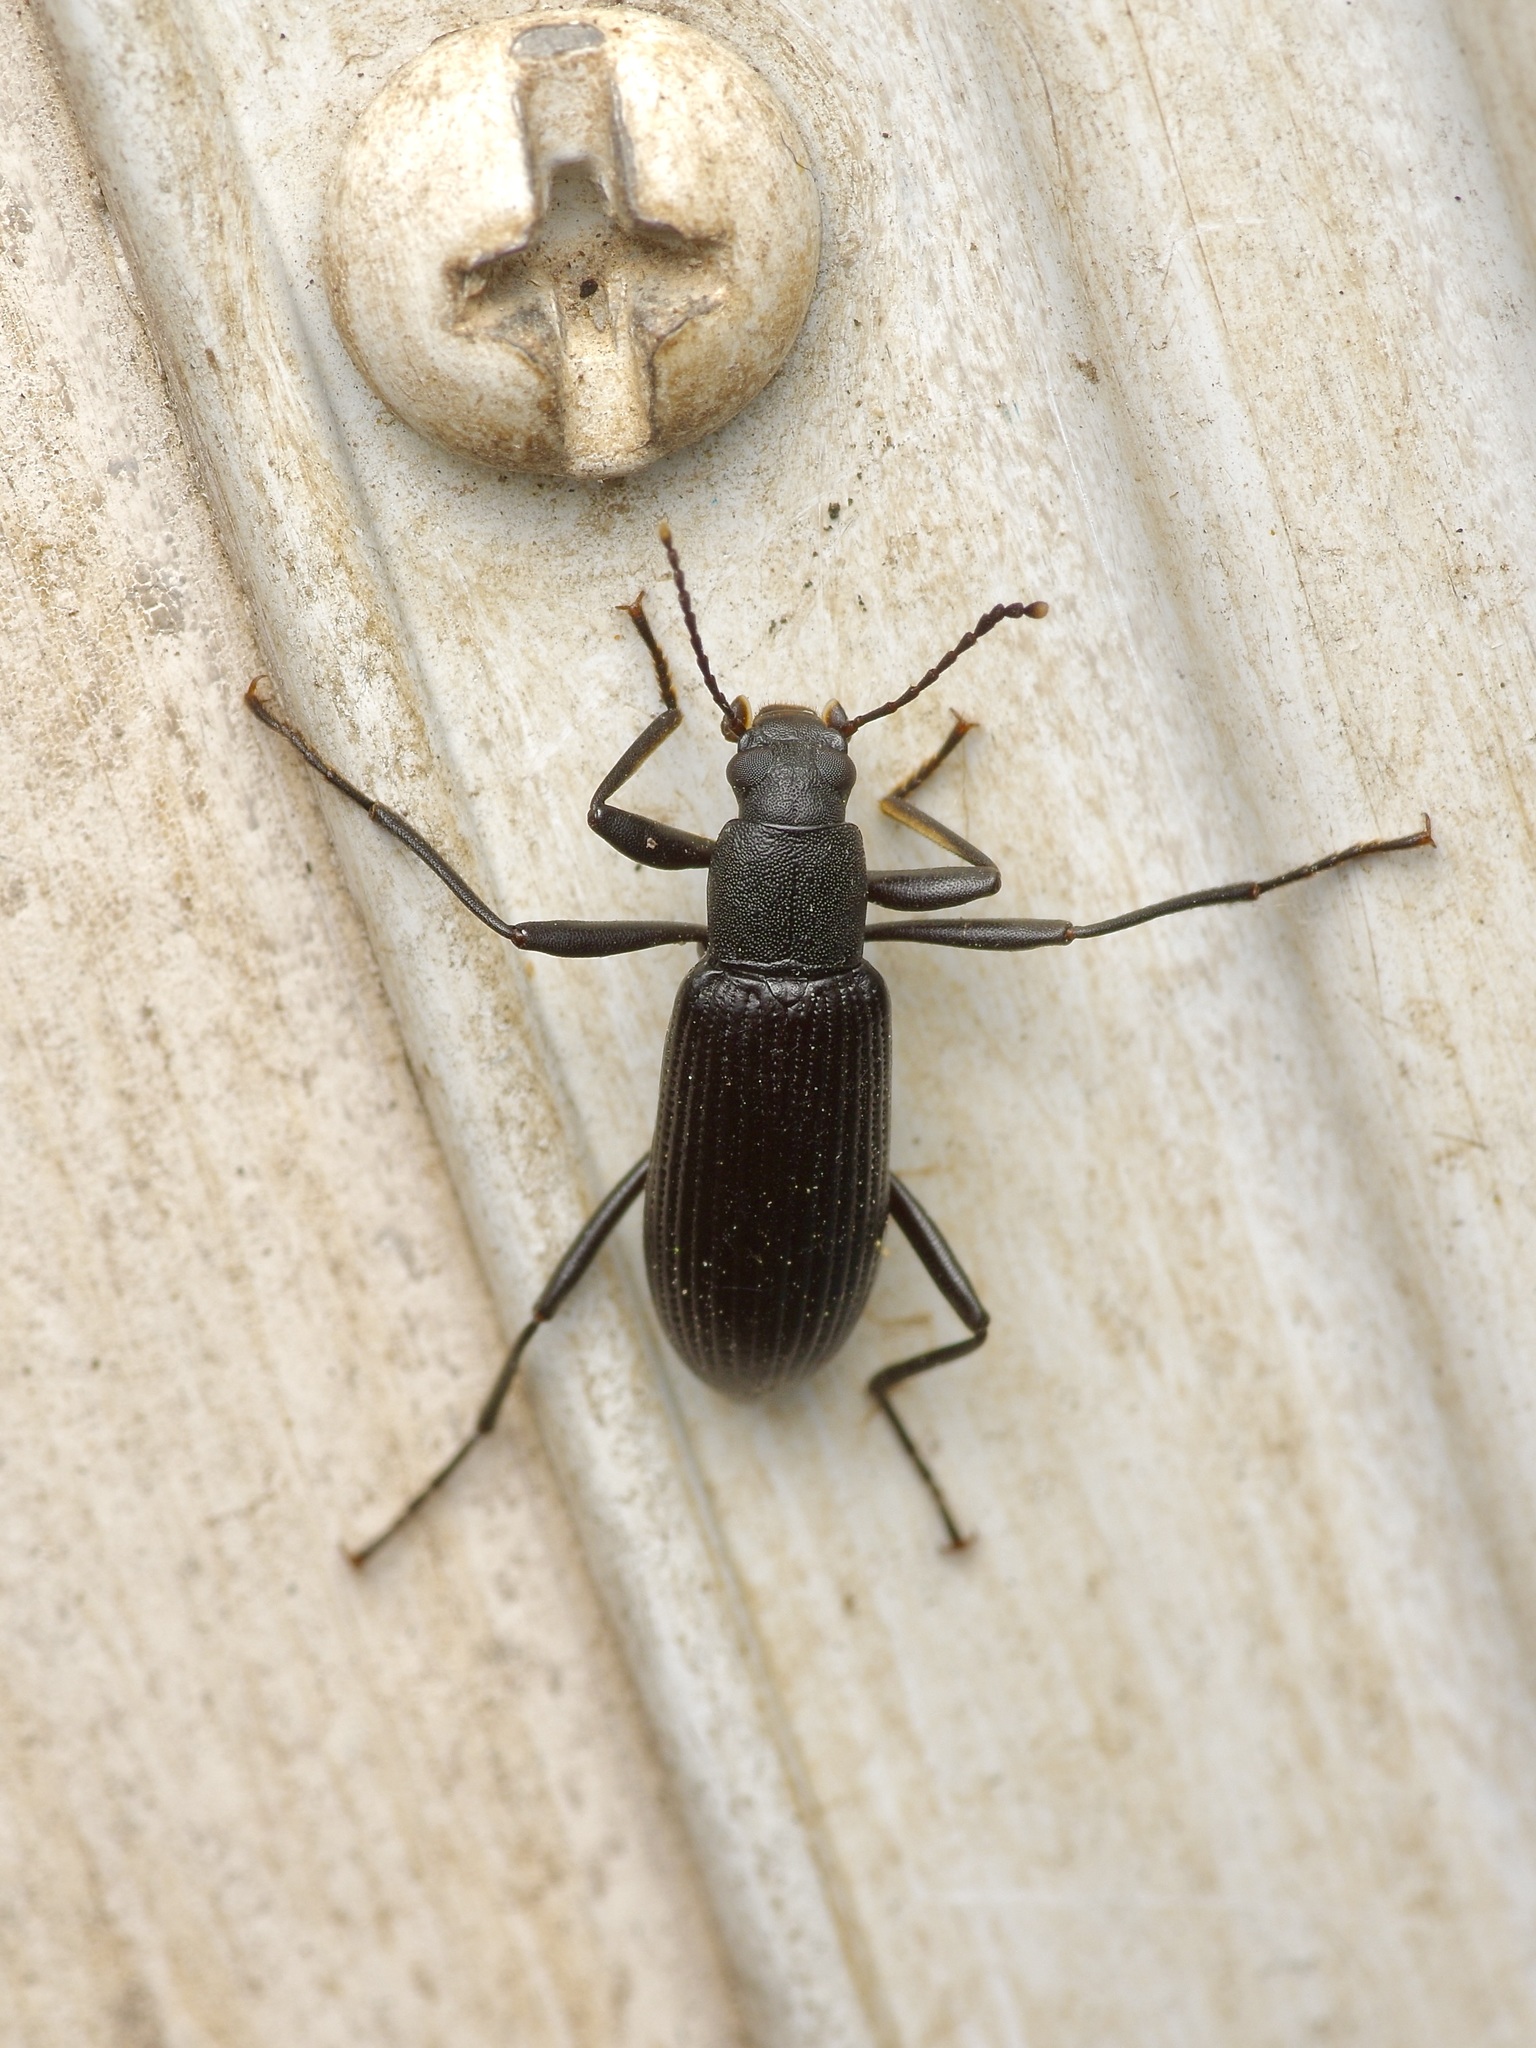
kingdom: Animalia
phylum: Arthropoda
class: Insecta
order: Coleoptera
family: Tenebrionidae
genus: Strongylium
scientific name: Strongylium tenuicolle
